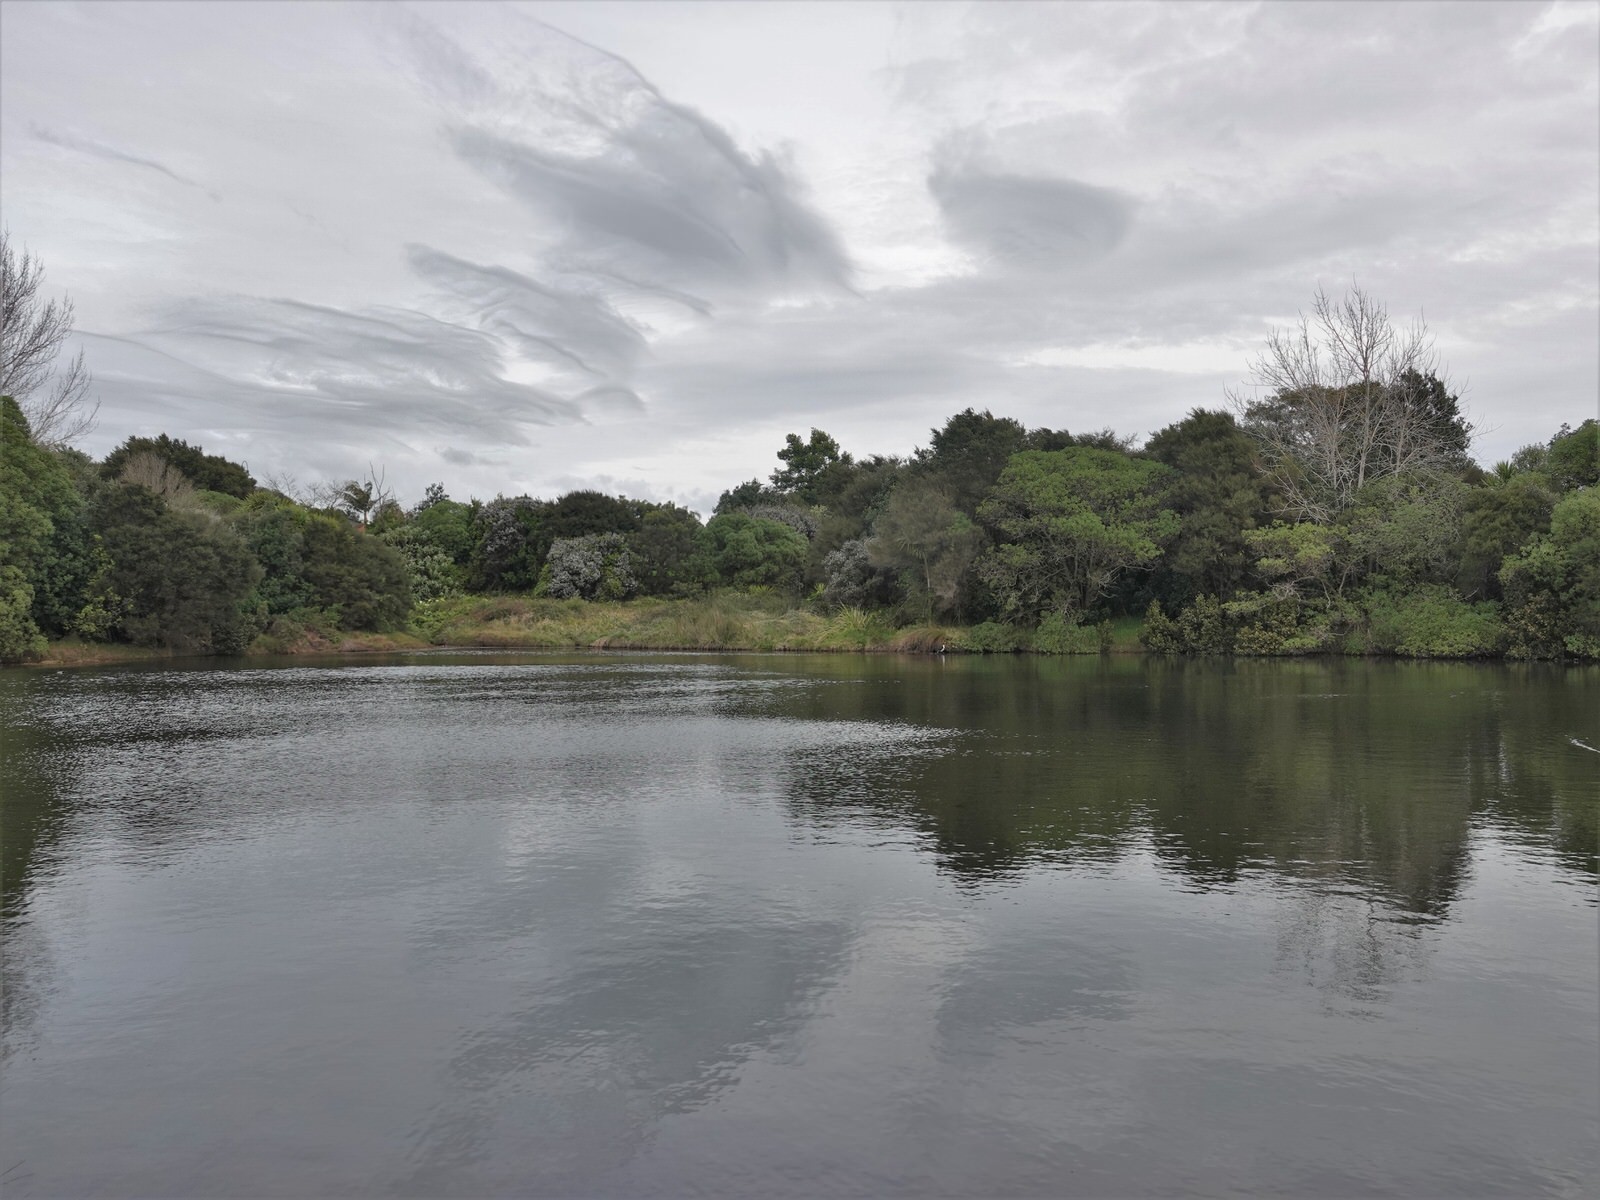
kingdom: Animalia
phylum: Chordata
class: Aves
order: Suliformes
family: Phalacrocoracidae
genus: Microcarbo
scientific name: Microcarbo melanoleucos
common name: Little pied cormorant
